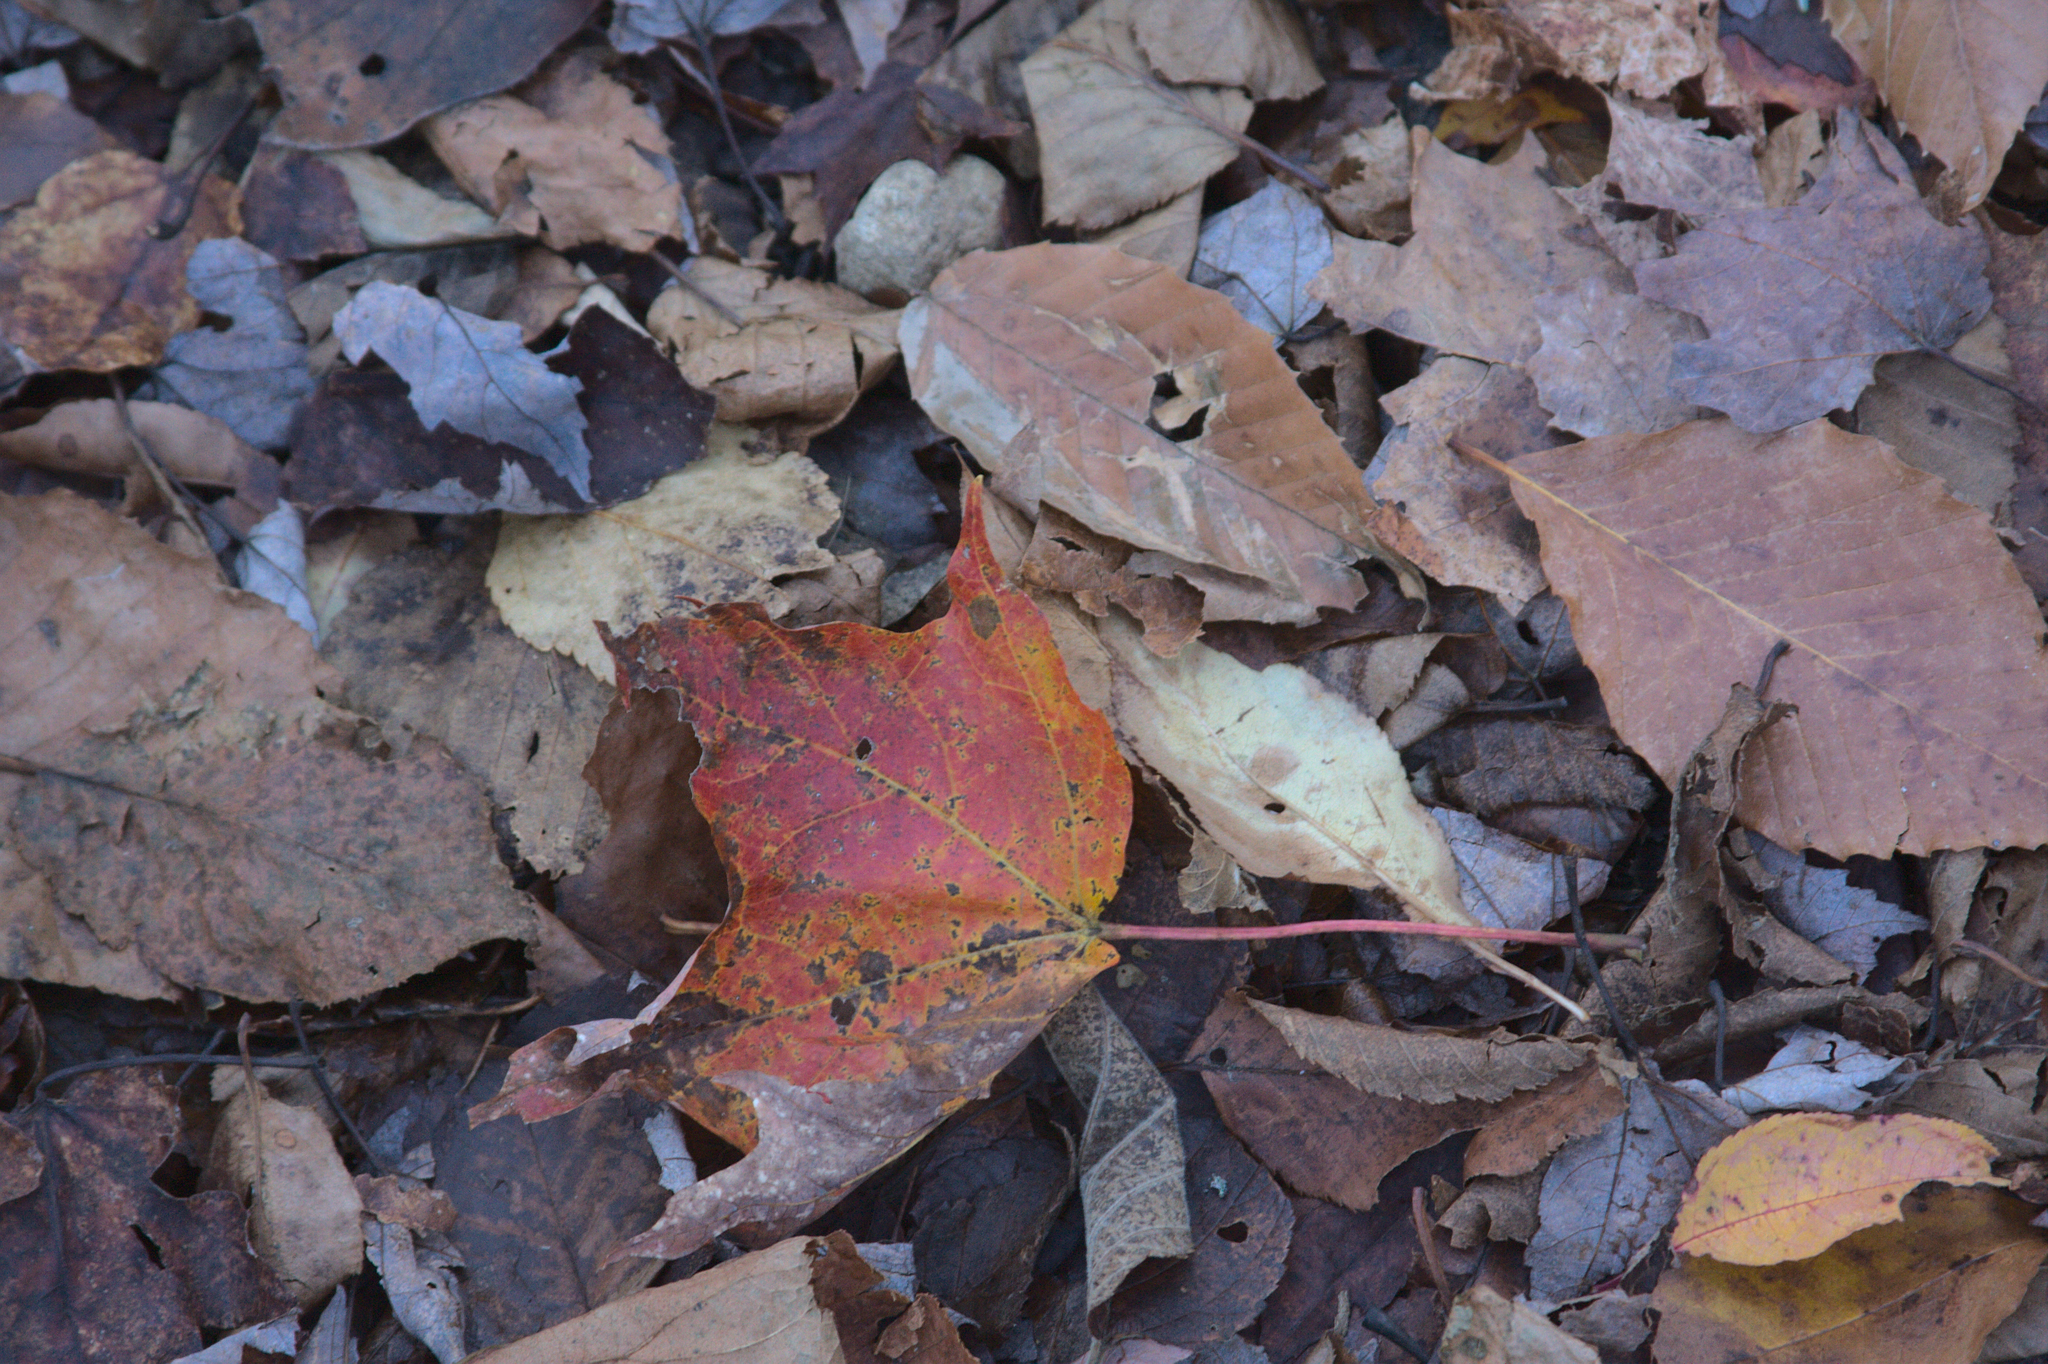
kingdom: Plantae
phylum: Tracheophyta
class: Magnoliopsida
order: Sapindales
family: Sapindaceae
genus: Acer
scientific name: Acer rubrum
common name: Red maple
